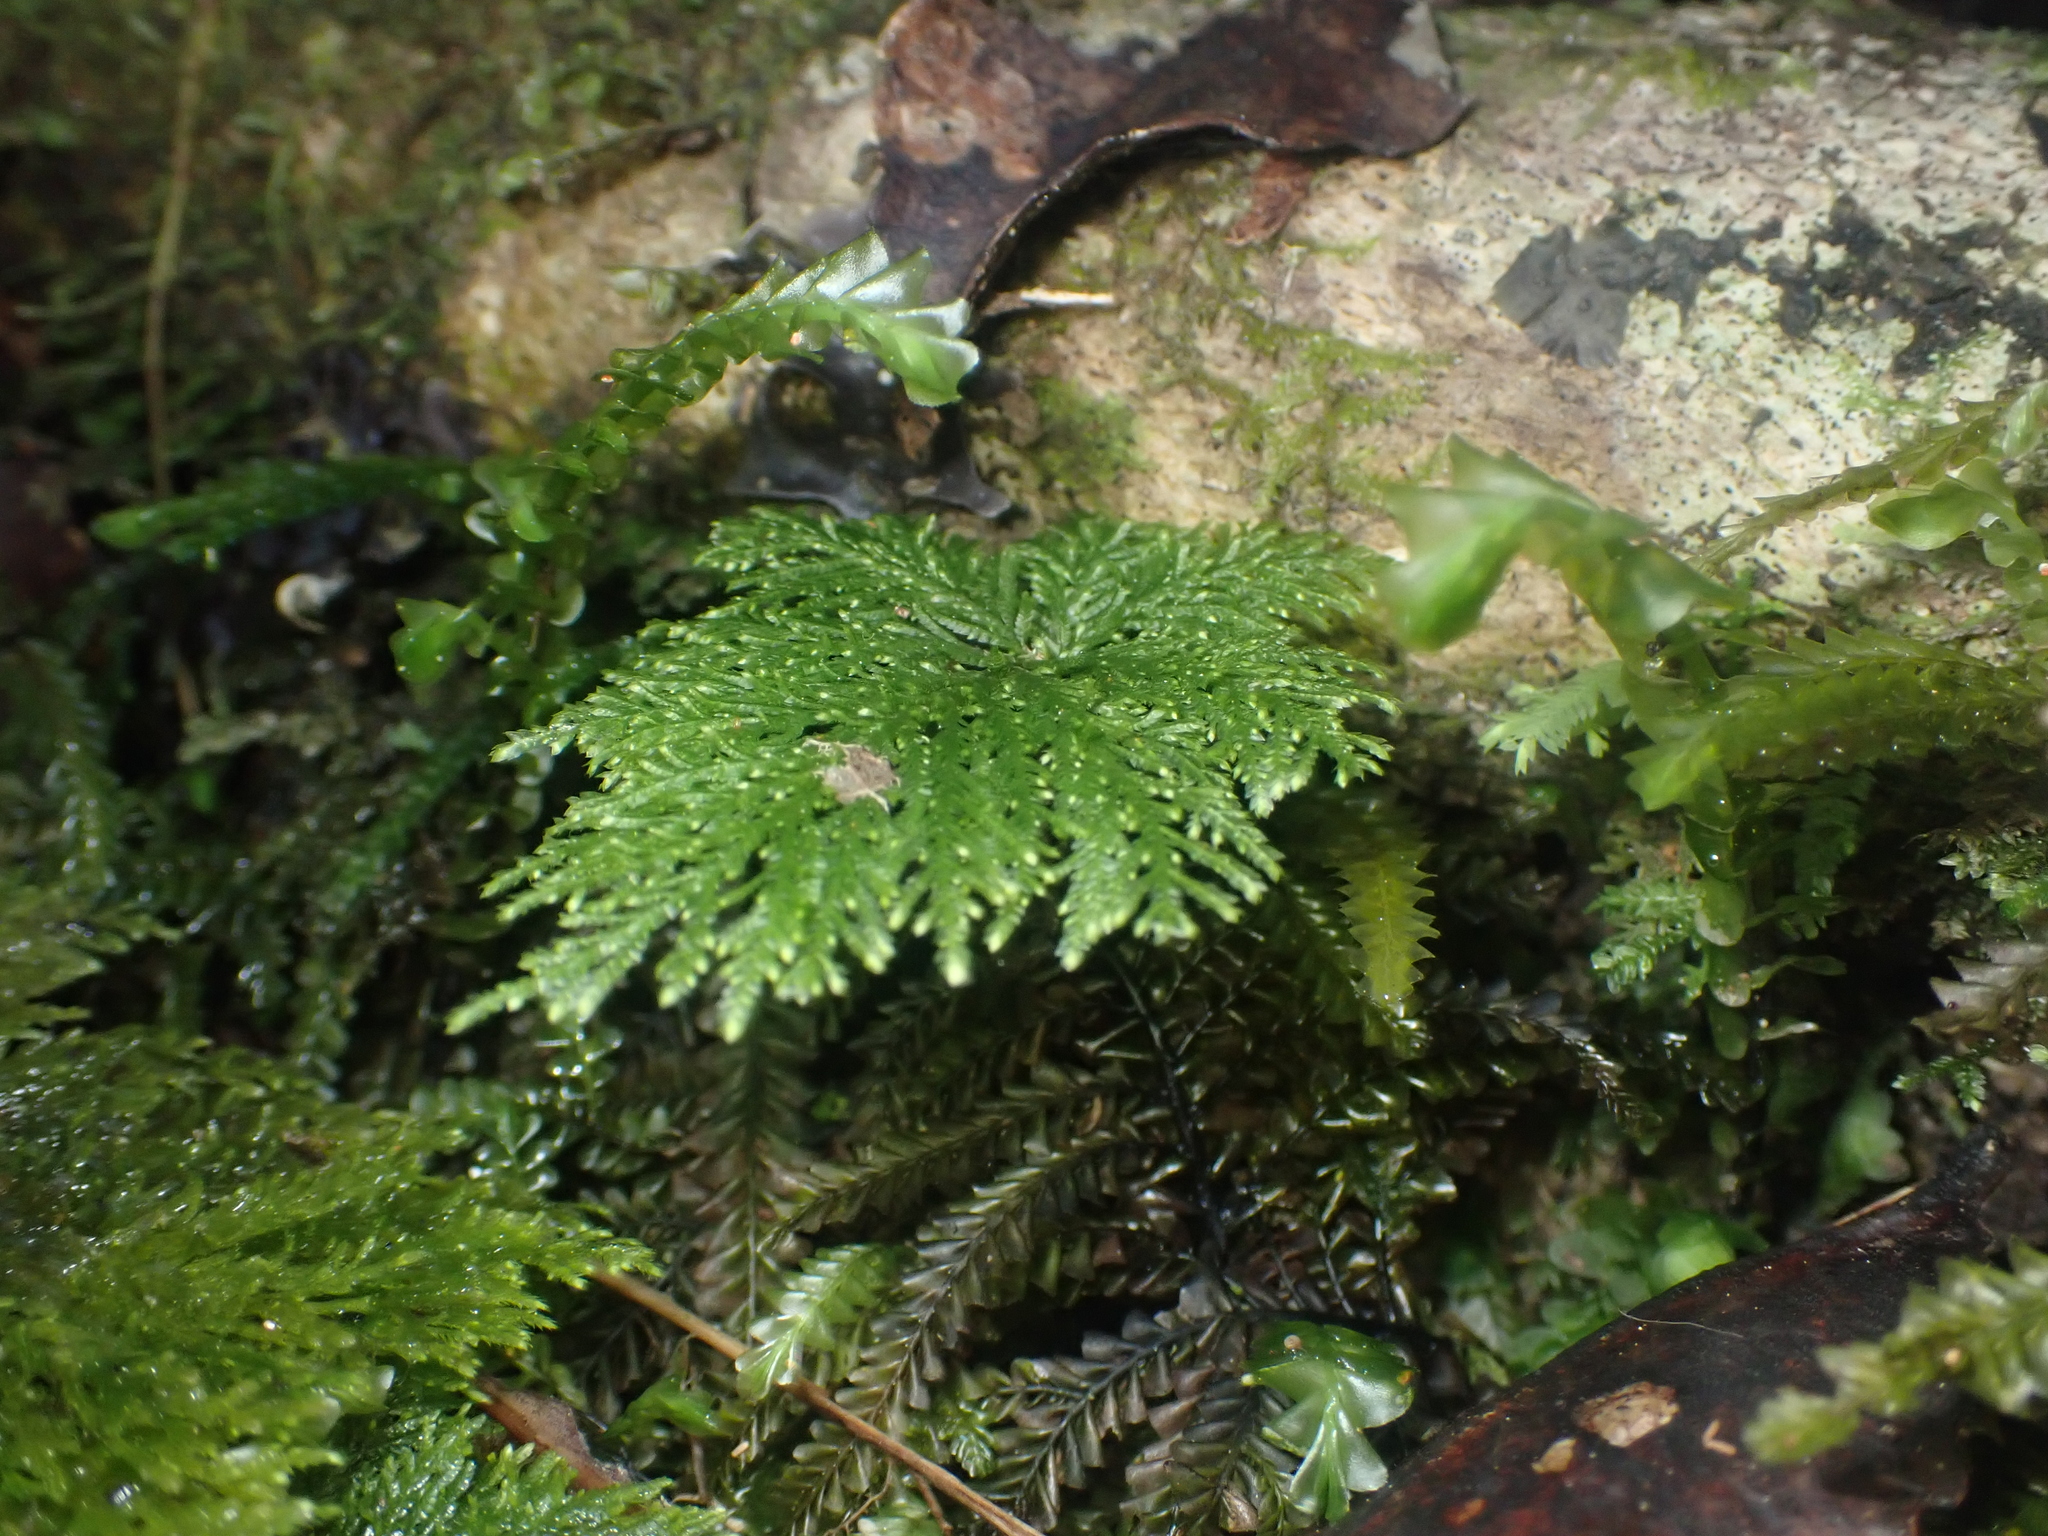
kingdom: Plantae
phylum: Bryophyta
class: Bryopsida
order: Hypopterygiales
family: Hypopterygiaceae
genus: Dendrohypopterygium
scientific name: Dendrohypopterygium filiculiforme
